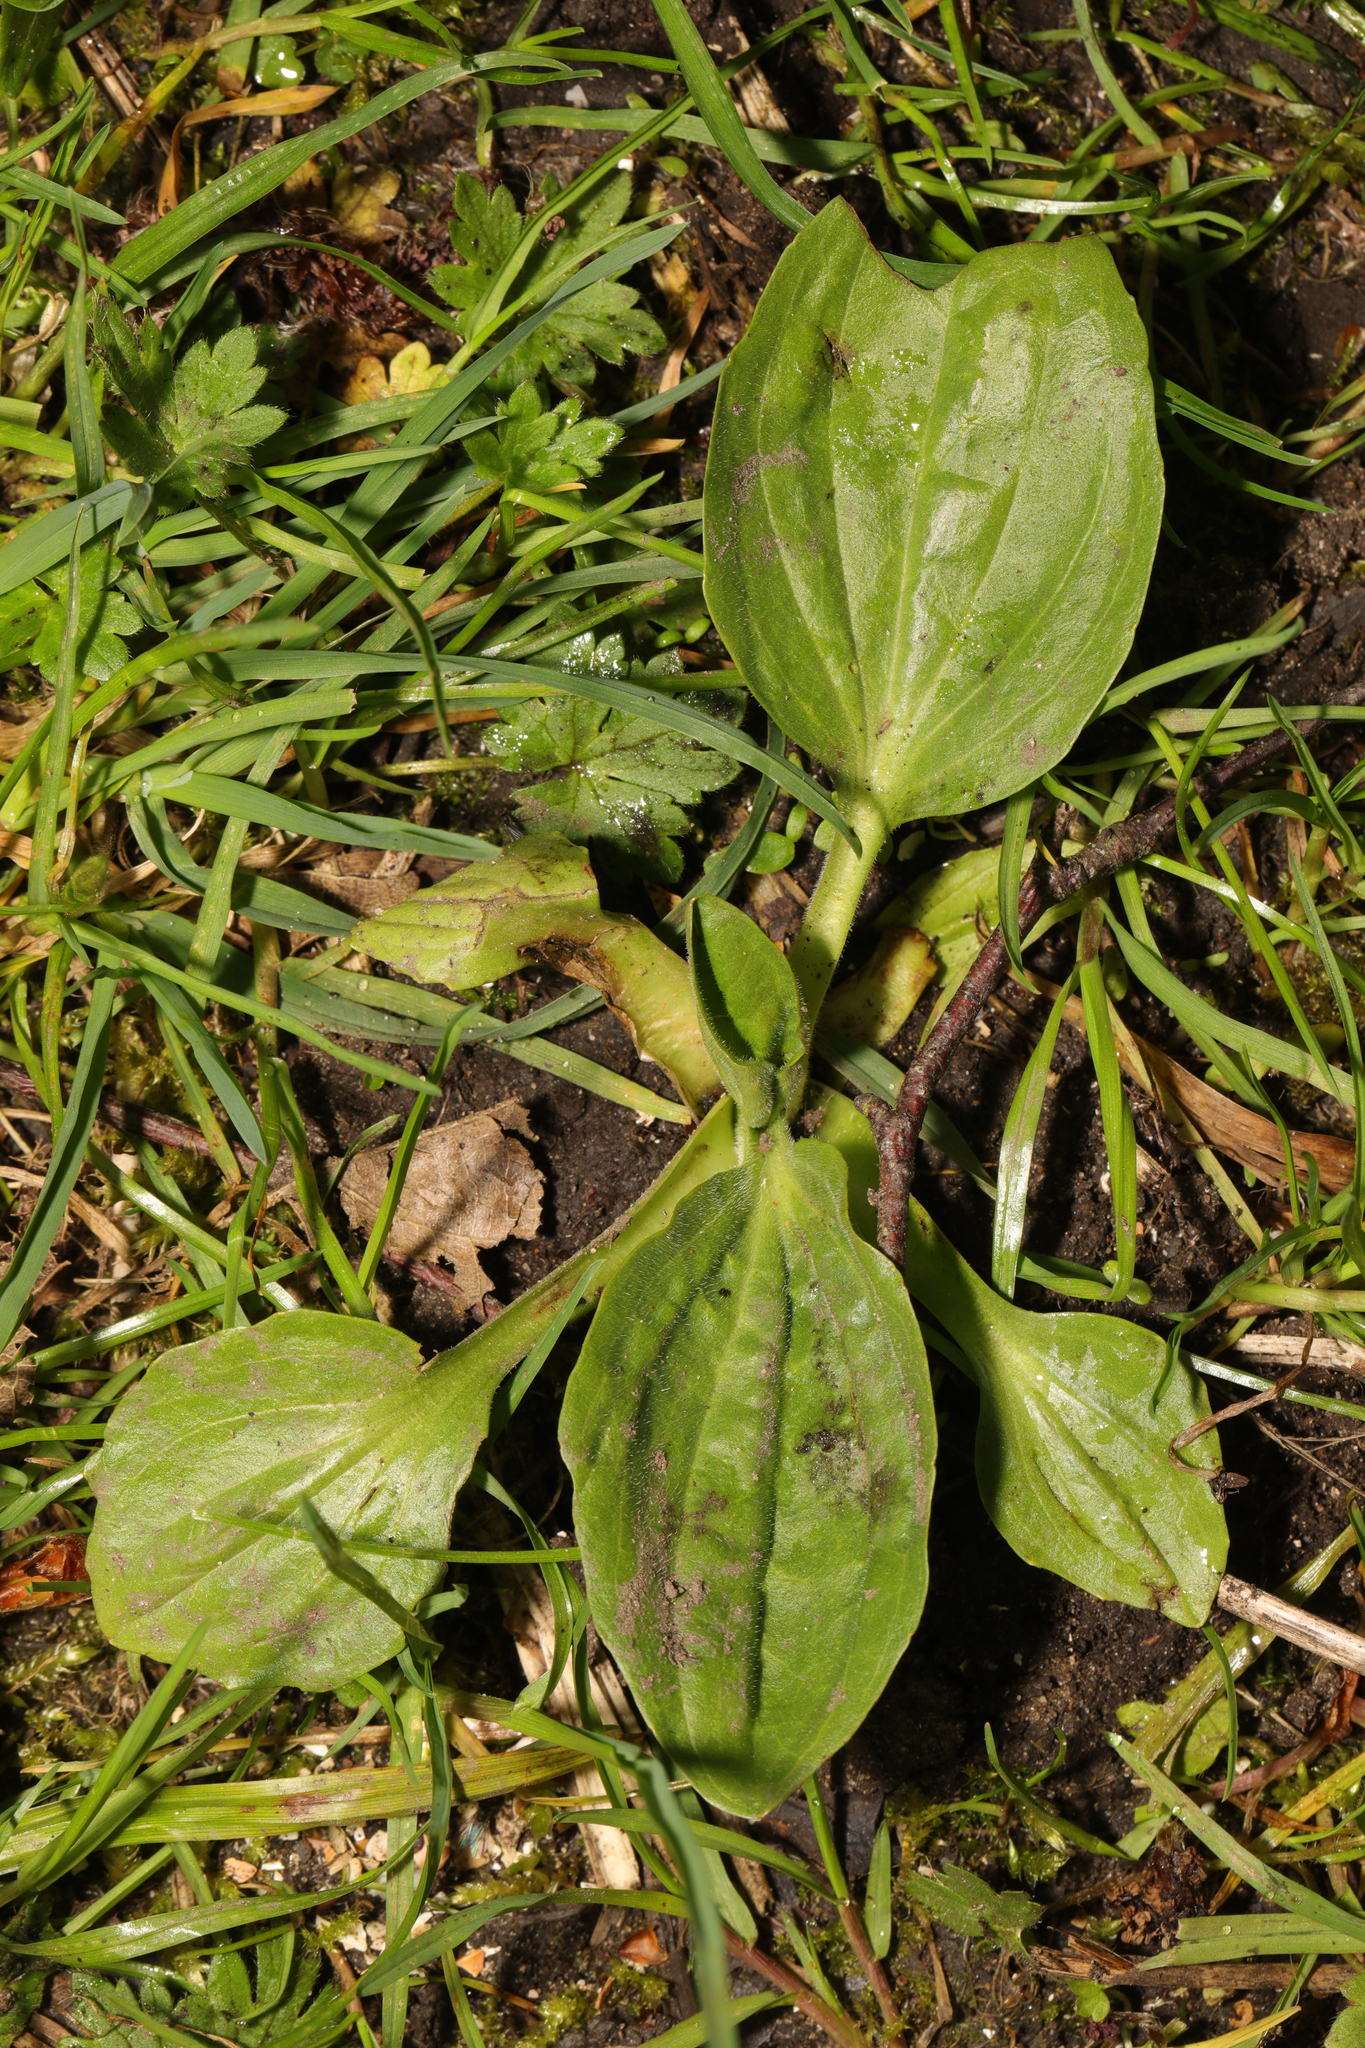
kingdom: Plantae
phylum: Tracheophyta
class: Magnoliopsida
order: Lamiales
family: Plantaginaceae
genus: Plantago
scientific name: Plantago major
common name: Common plantain
